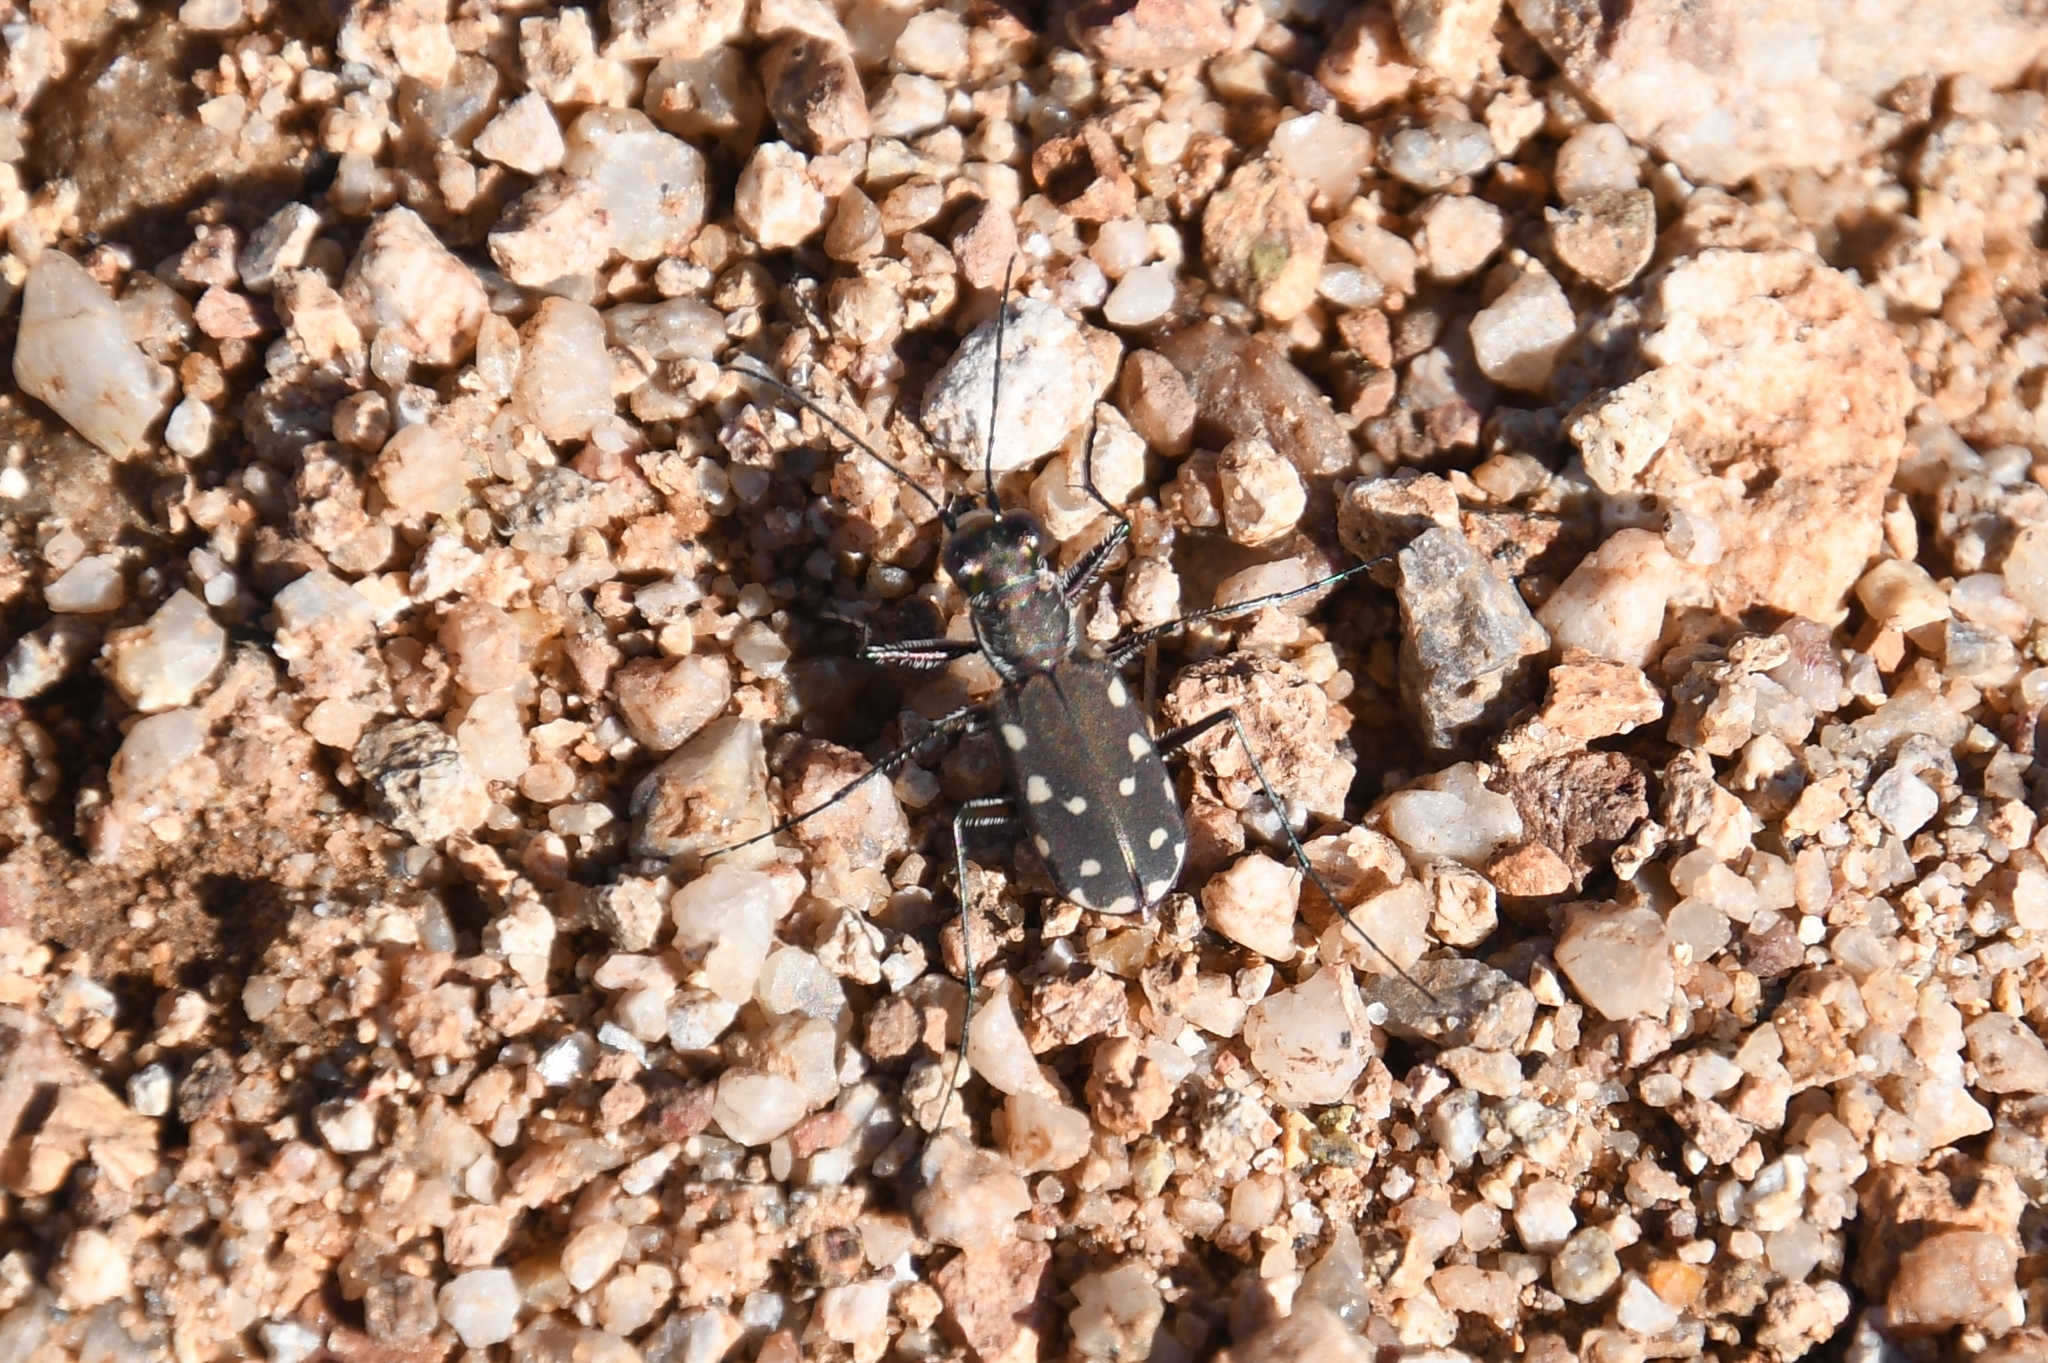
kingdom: Animalia
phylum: Arthropoda
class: Insecta
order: Coleoptera
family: Carabidae
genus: Cicindela
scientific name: Cicindela sedecimpunctata
